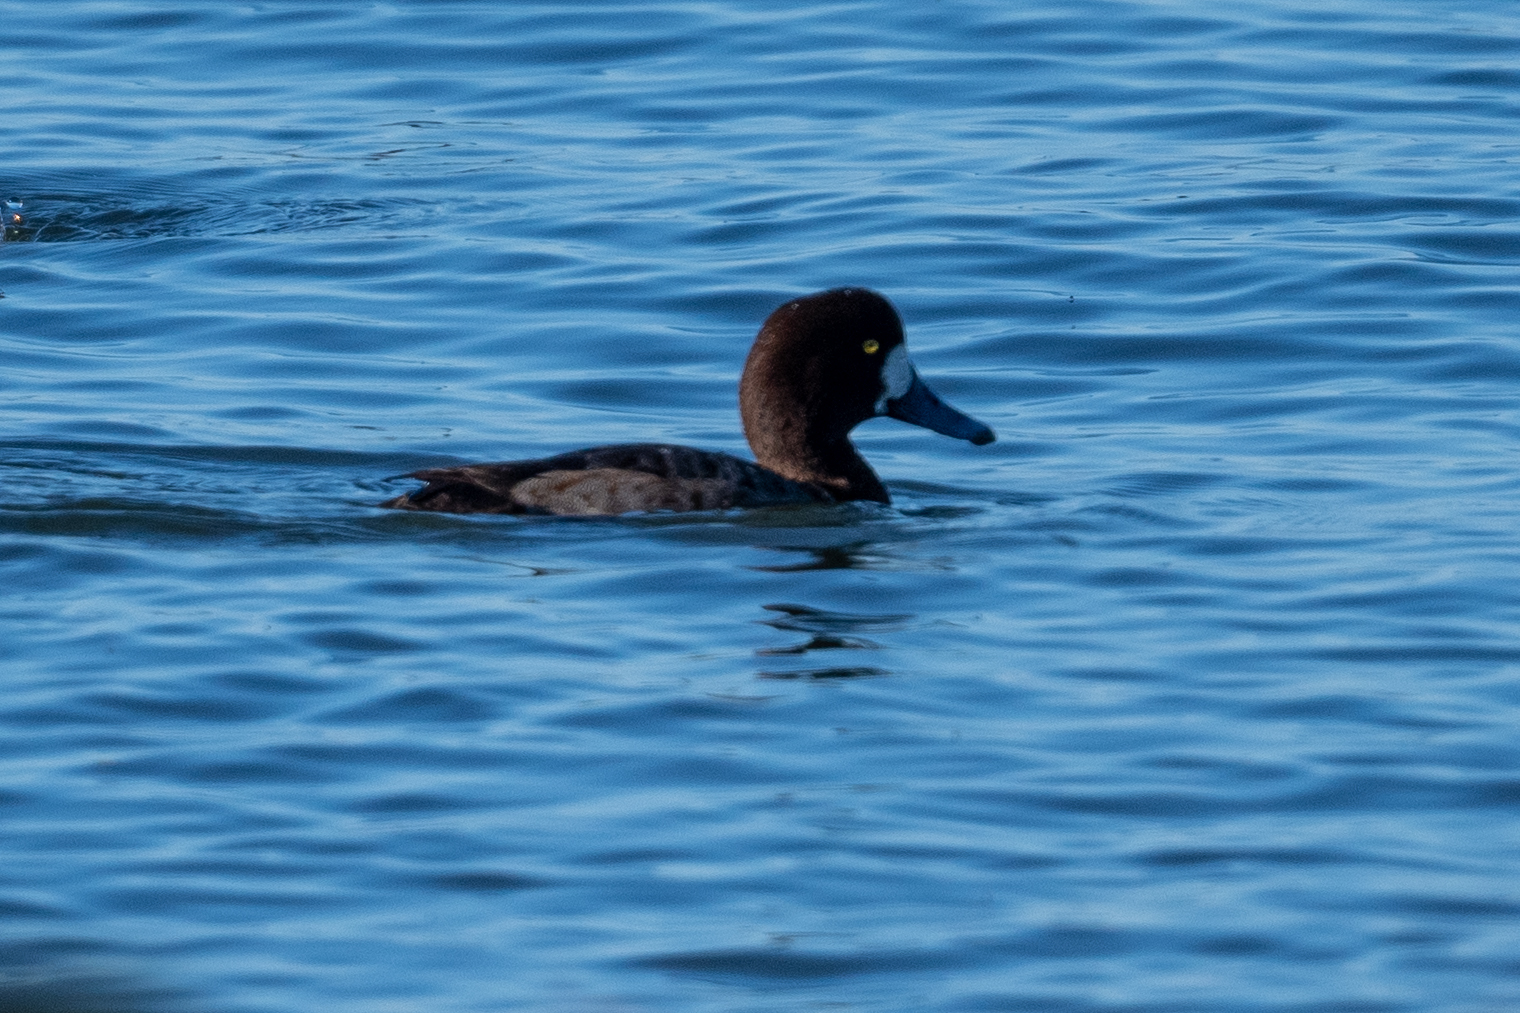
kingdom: Animalia
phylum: Chordata
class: Aves
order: Anseriformes
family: Anatidae
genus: Aythya
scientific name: Aythya marila
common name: Greater scaup
